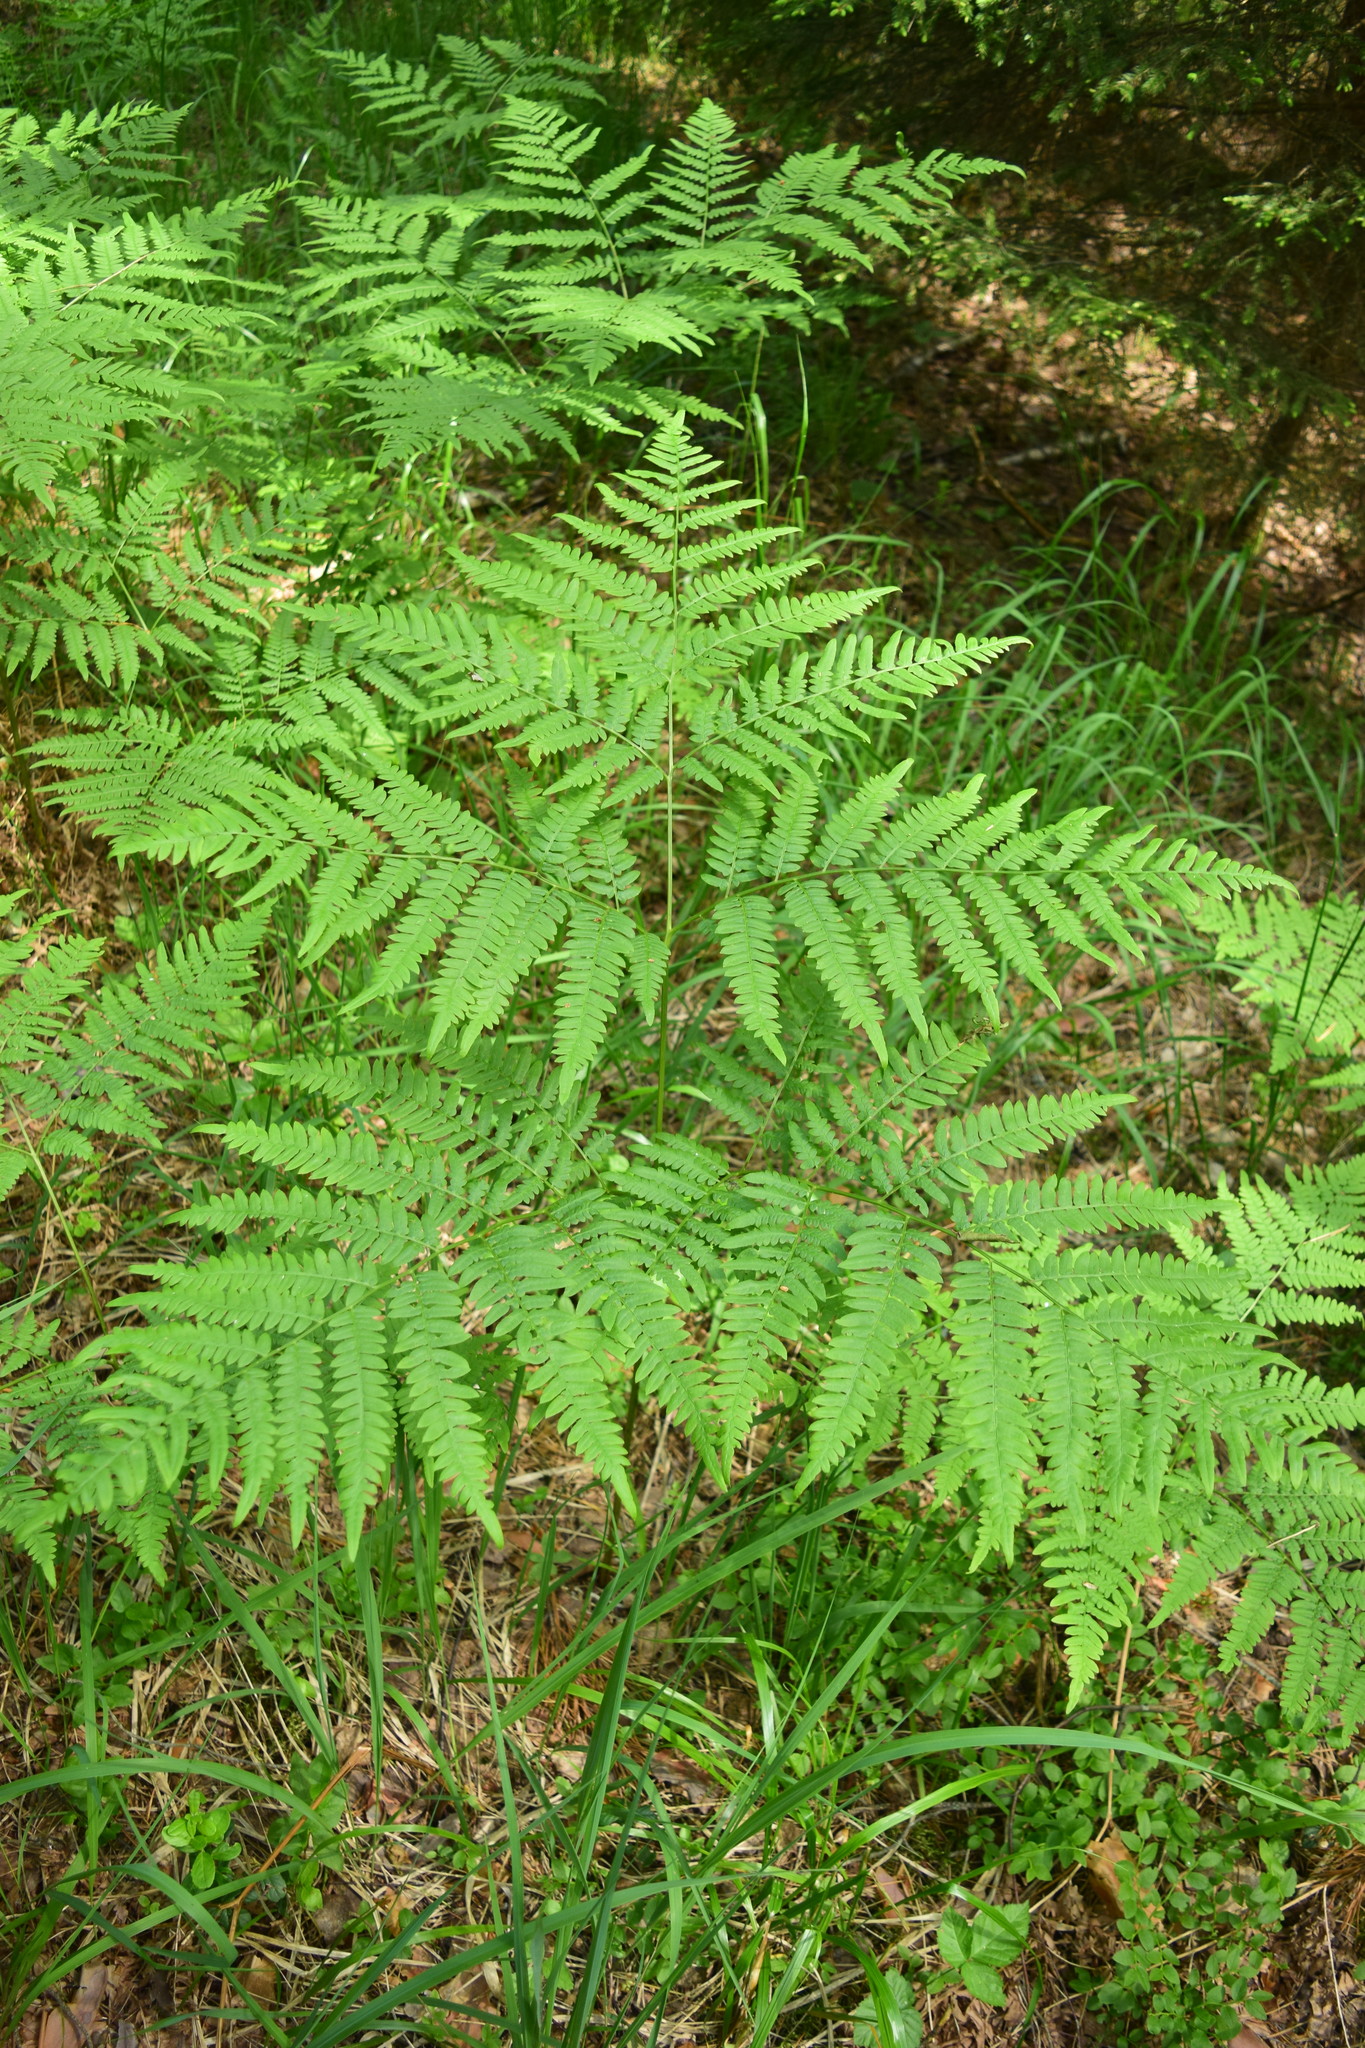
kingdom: Plantae
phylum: Tracheophyta
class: Polypodiopsida
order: Polypodiales
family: Dennstaedtiaceae
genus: Pteridium
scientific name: Pteridium aquilinum
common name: Bracken
